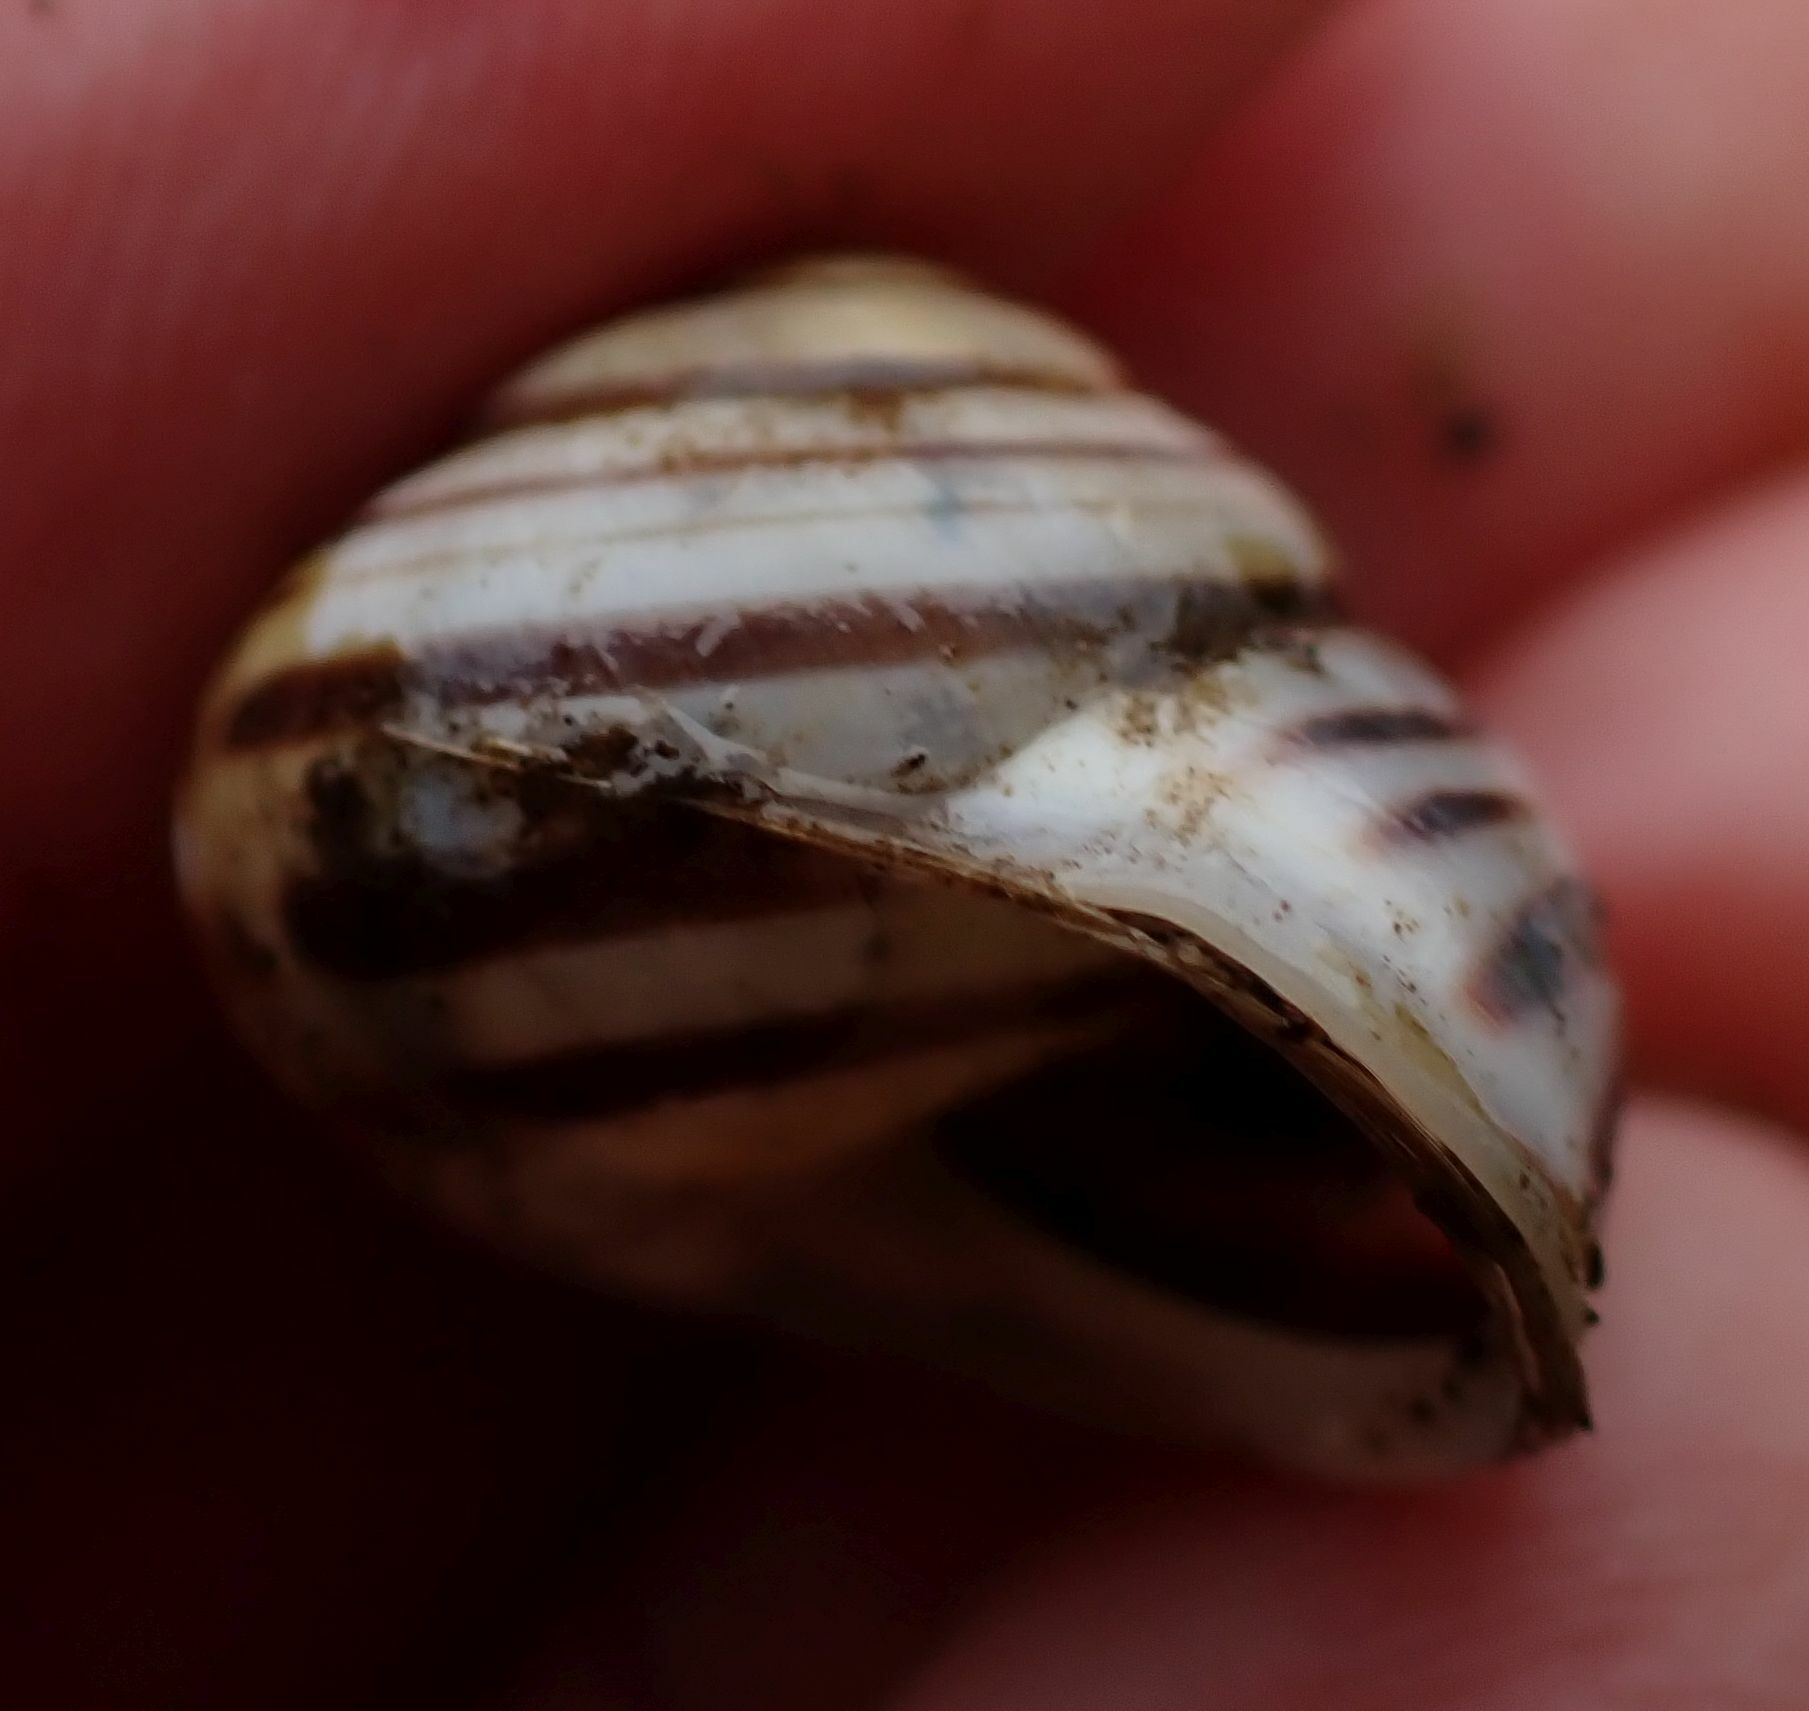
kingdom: Animalia
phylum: Mollusca
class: Gastropoda
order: Stylommatophora
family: Helicidae
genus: Cepaea
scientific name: Cepaea hortensis
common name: White-lip gardensnail
